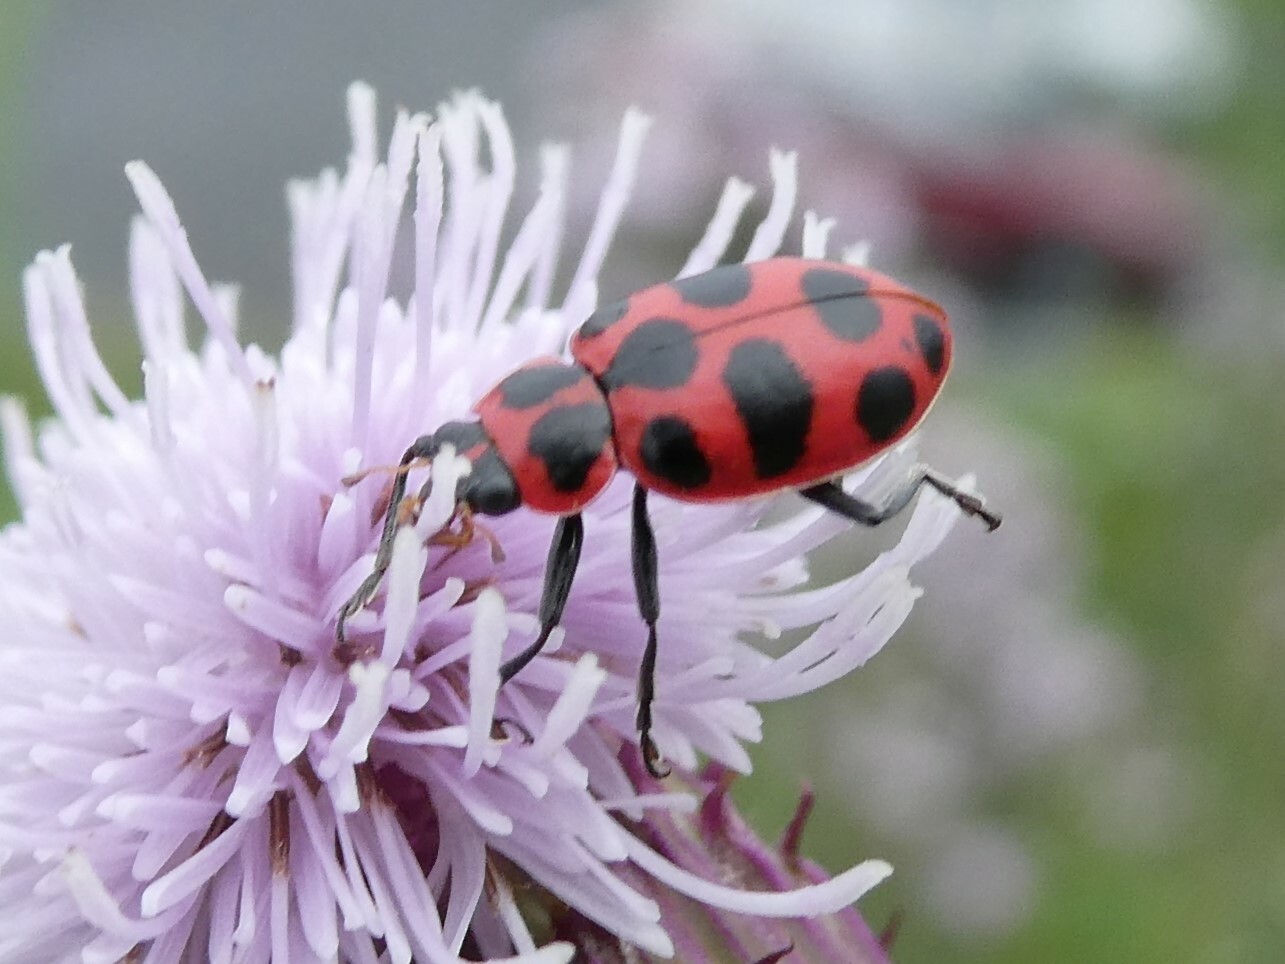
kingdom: Animalia
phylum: Arthropoda
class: Insecta
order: Coleoptera
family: Coccinellidae
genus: Coleomegilla
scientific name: Coleomegilla maculata
